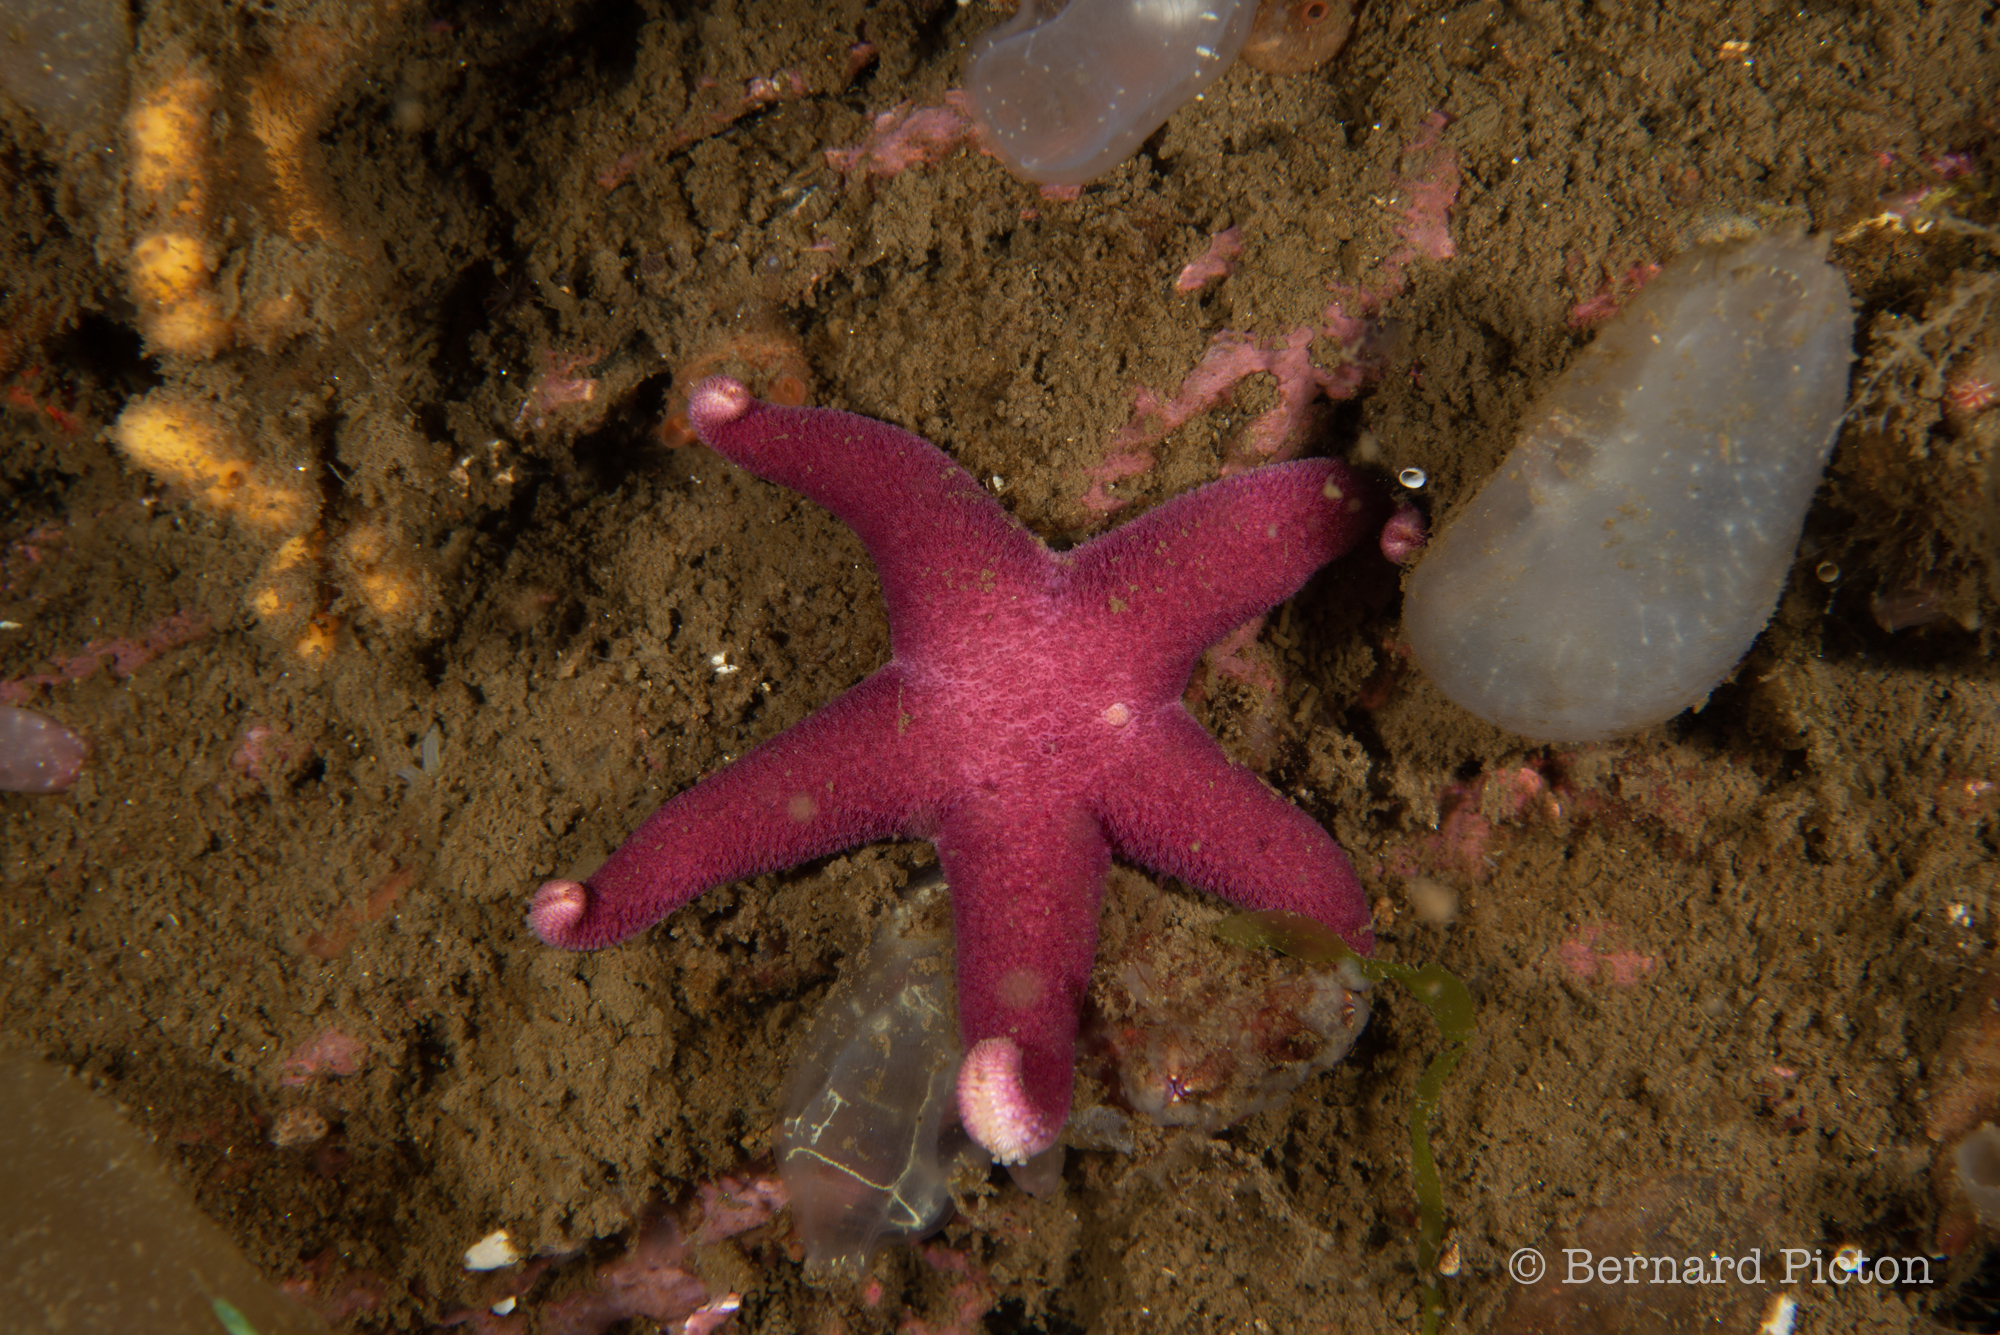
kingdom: Animalia
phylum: Echinodermata
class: Asteroidea
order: Spinulosida
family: Echinasteridae
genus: Henricia
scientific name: Henricia oculata
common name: Bloody henry starfish
